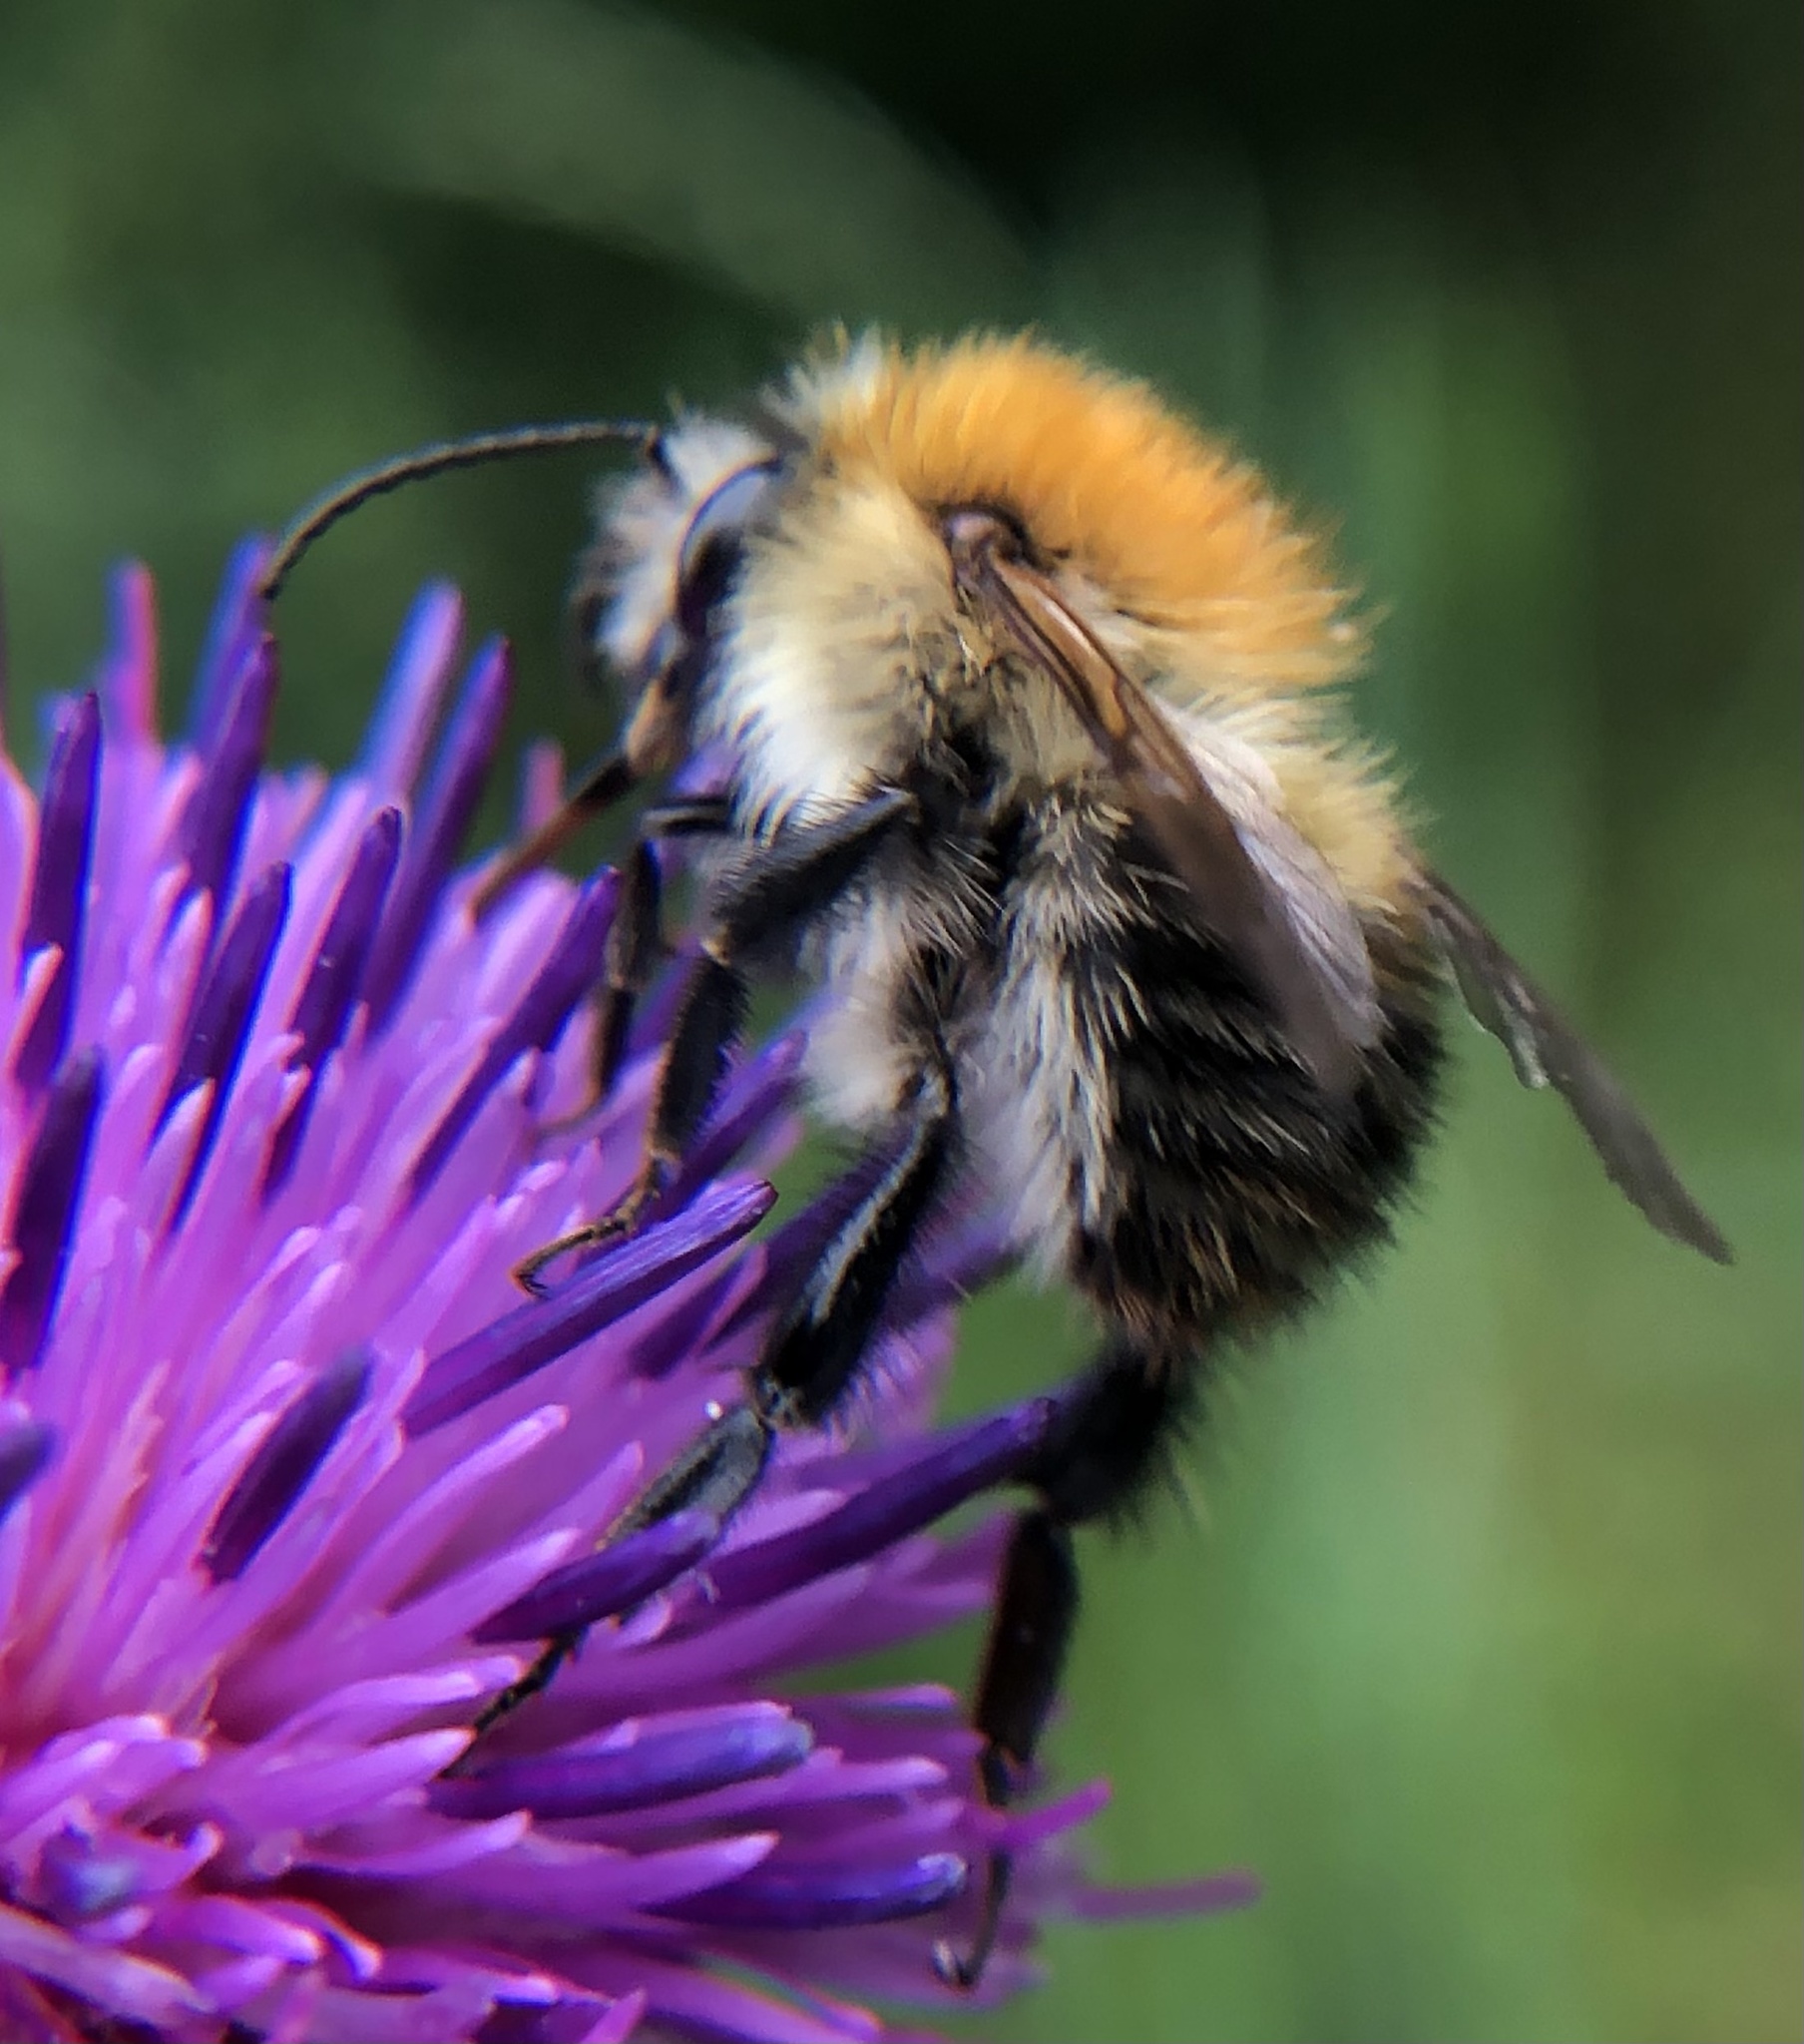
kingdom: Animalia
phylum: Arthropoda
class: Insecta
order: Hymenoptera
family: Apidae
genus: Bombus
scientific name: Bombus pascuorum
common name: Common carder bee
